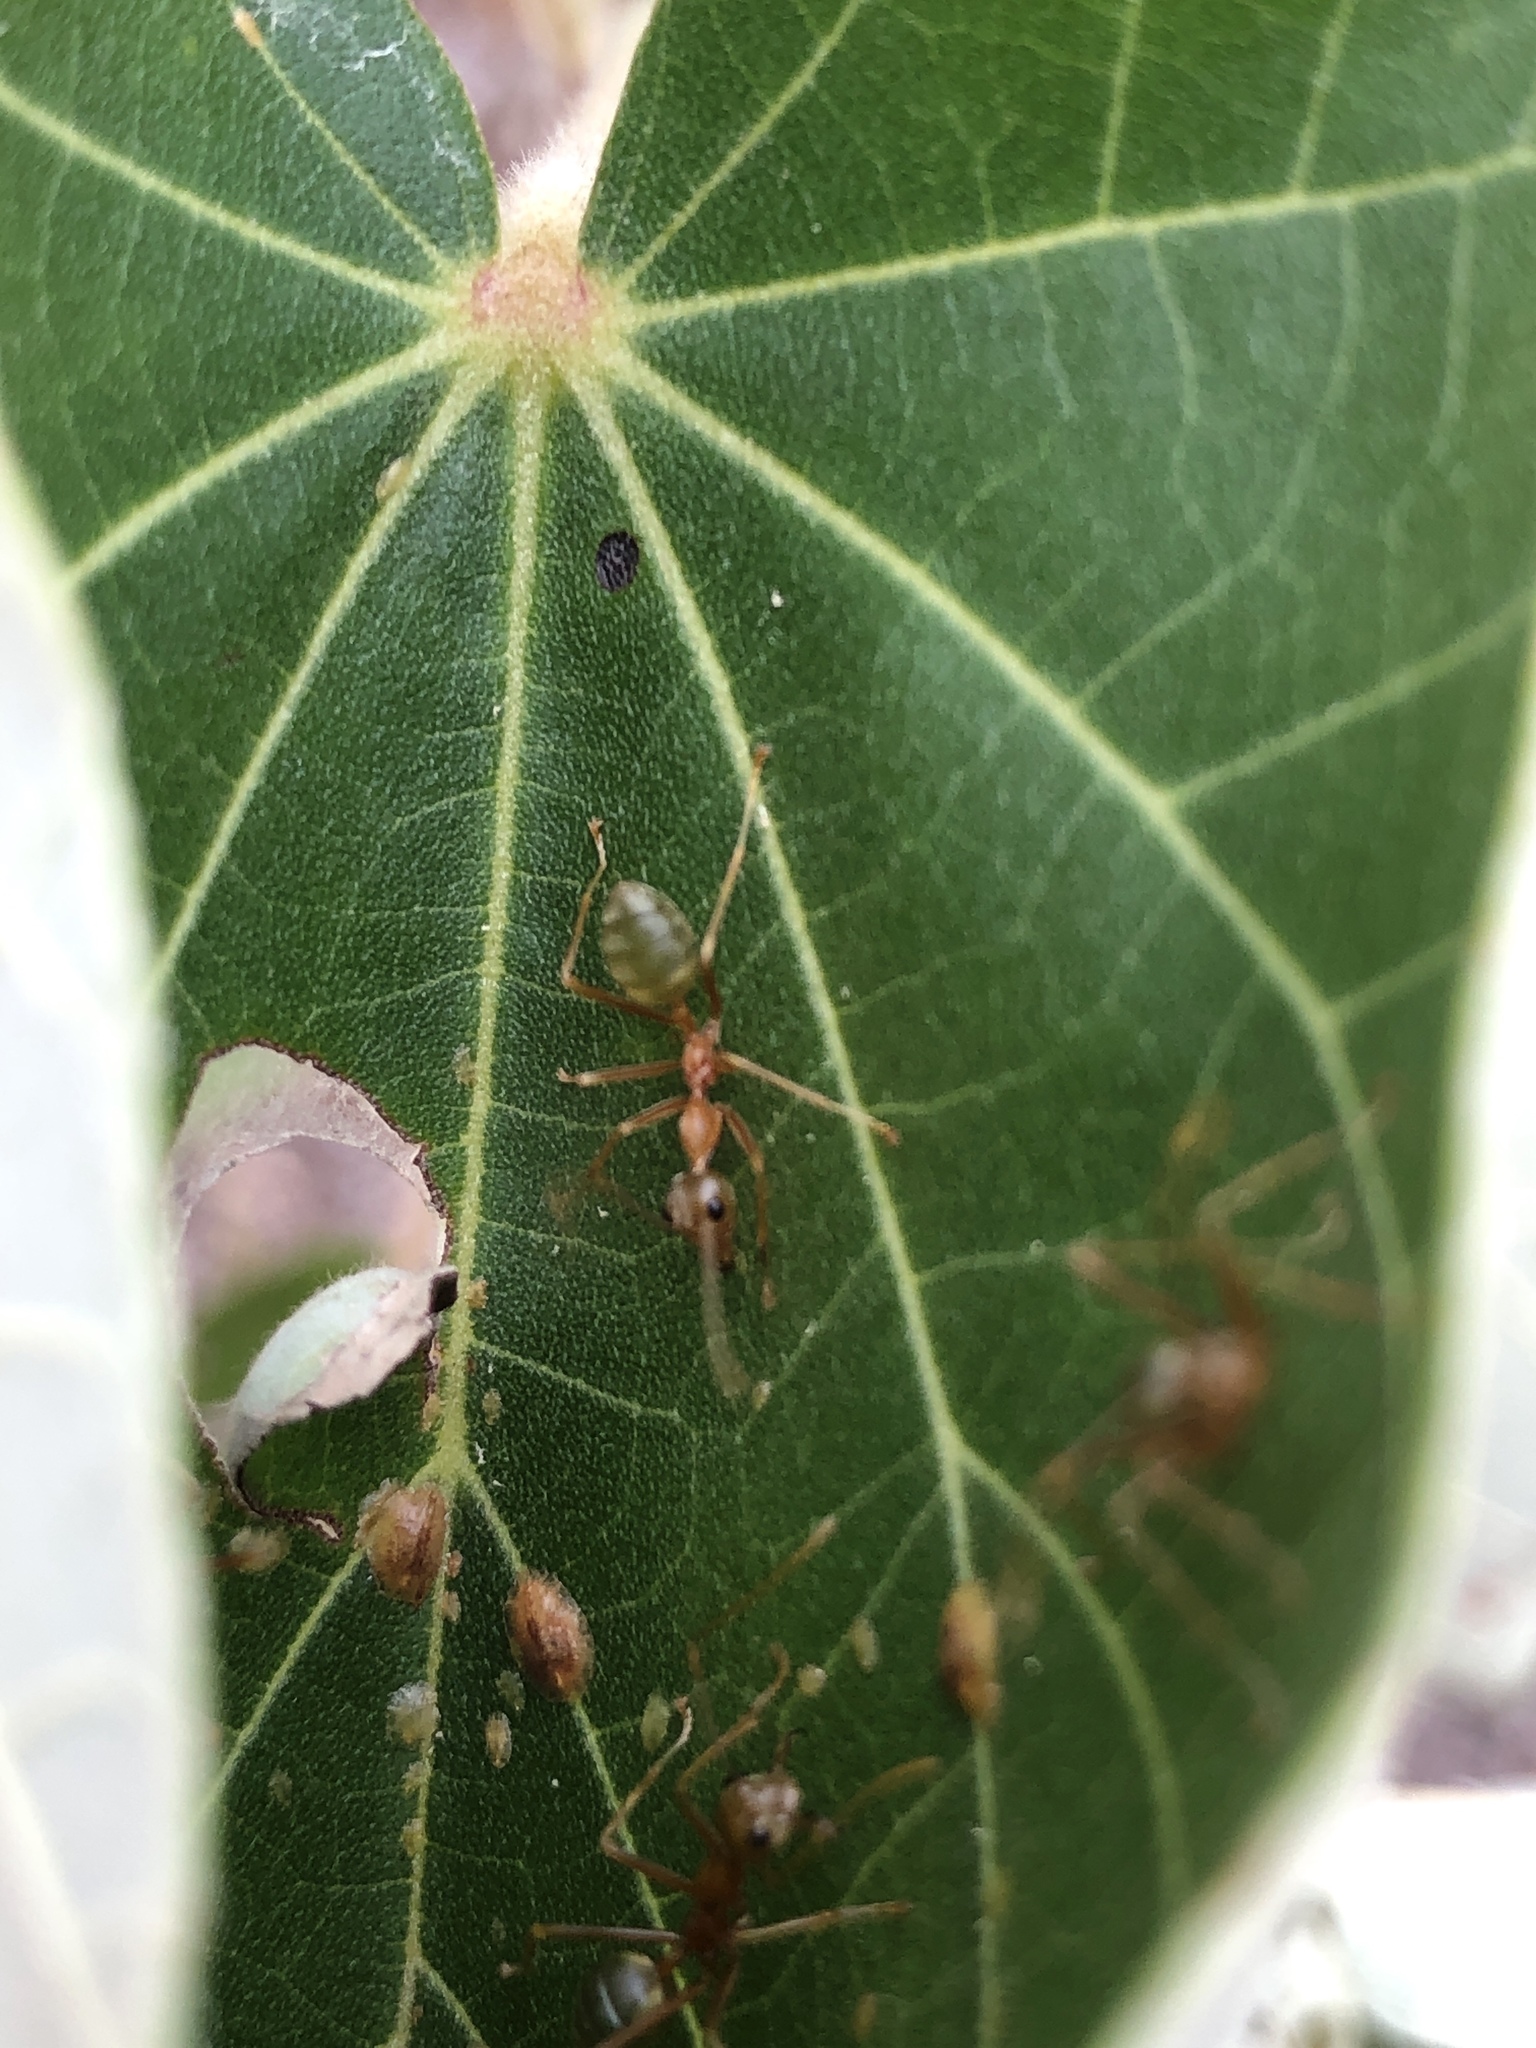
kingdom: Animalia
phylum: Arthropoda
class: Insecta
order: Hymenoptera
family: Formicidae
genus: Oecophylla
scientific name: Oecophylla smaragdina
